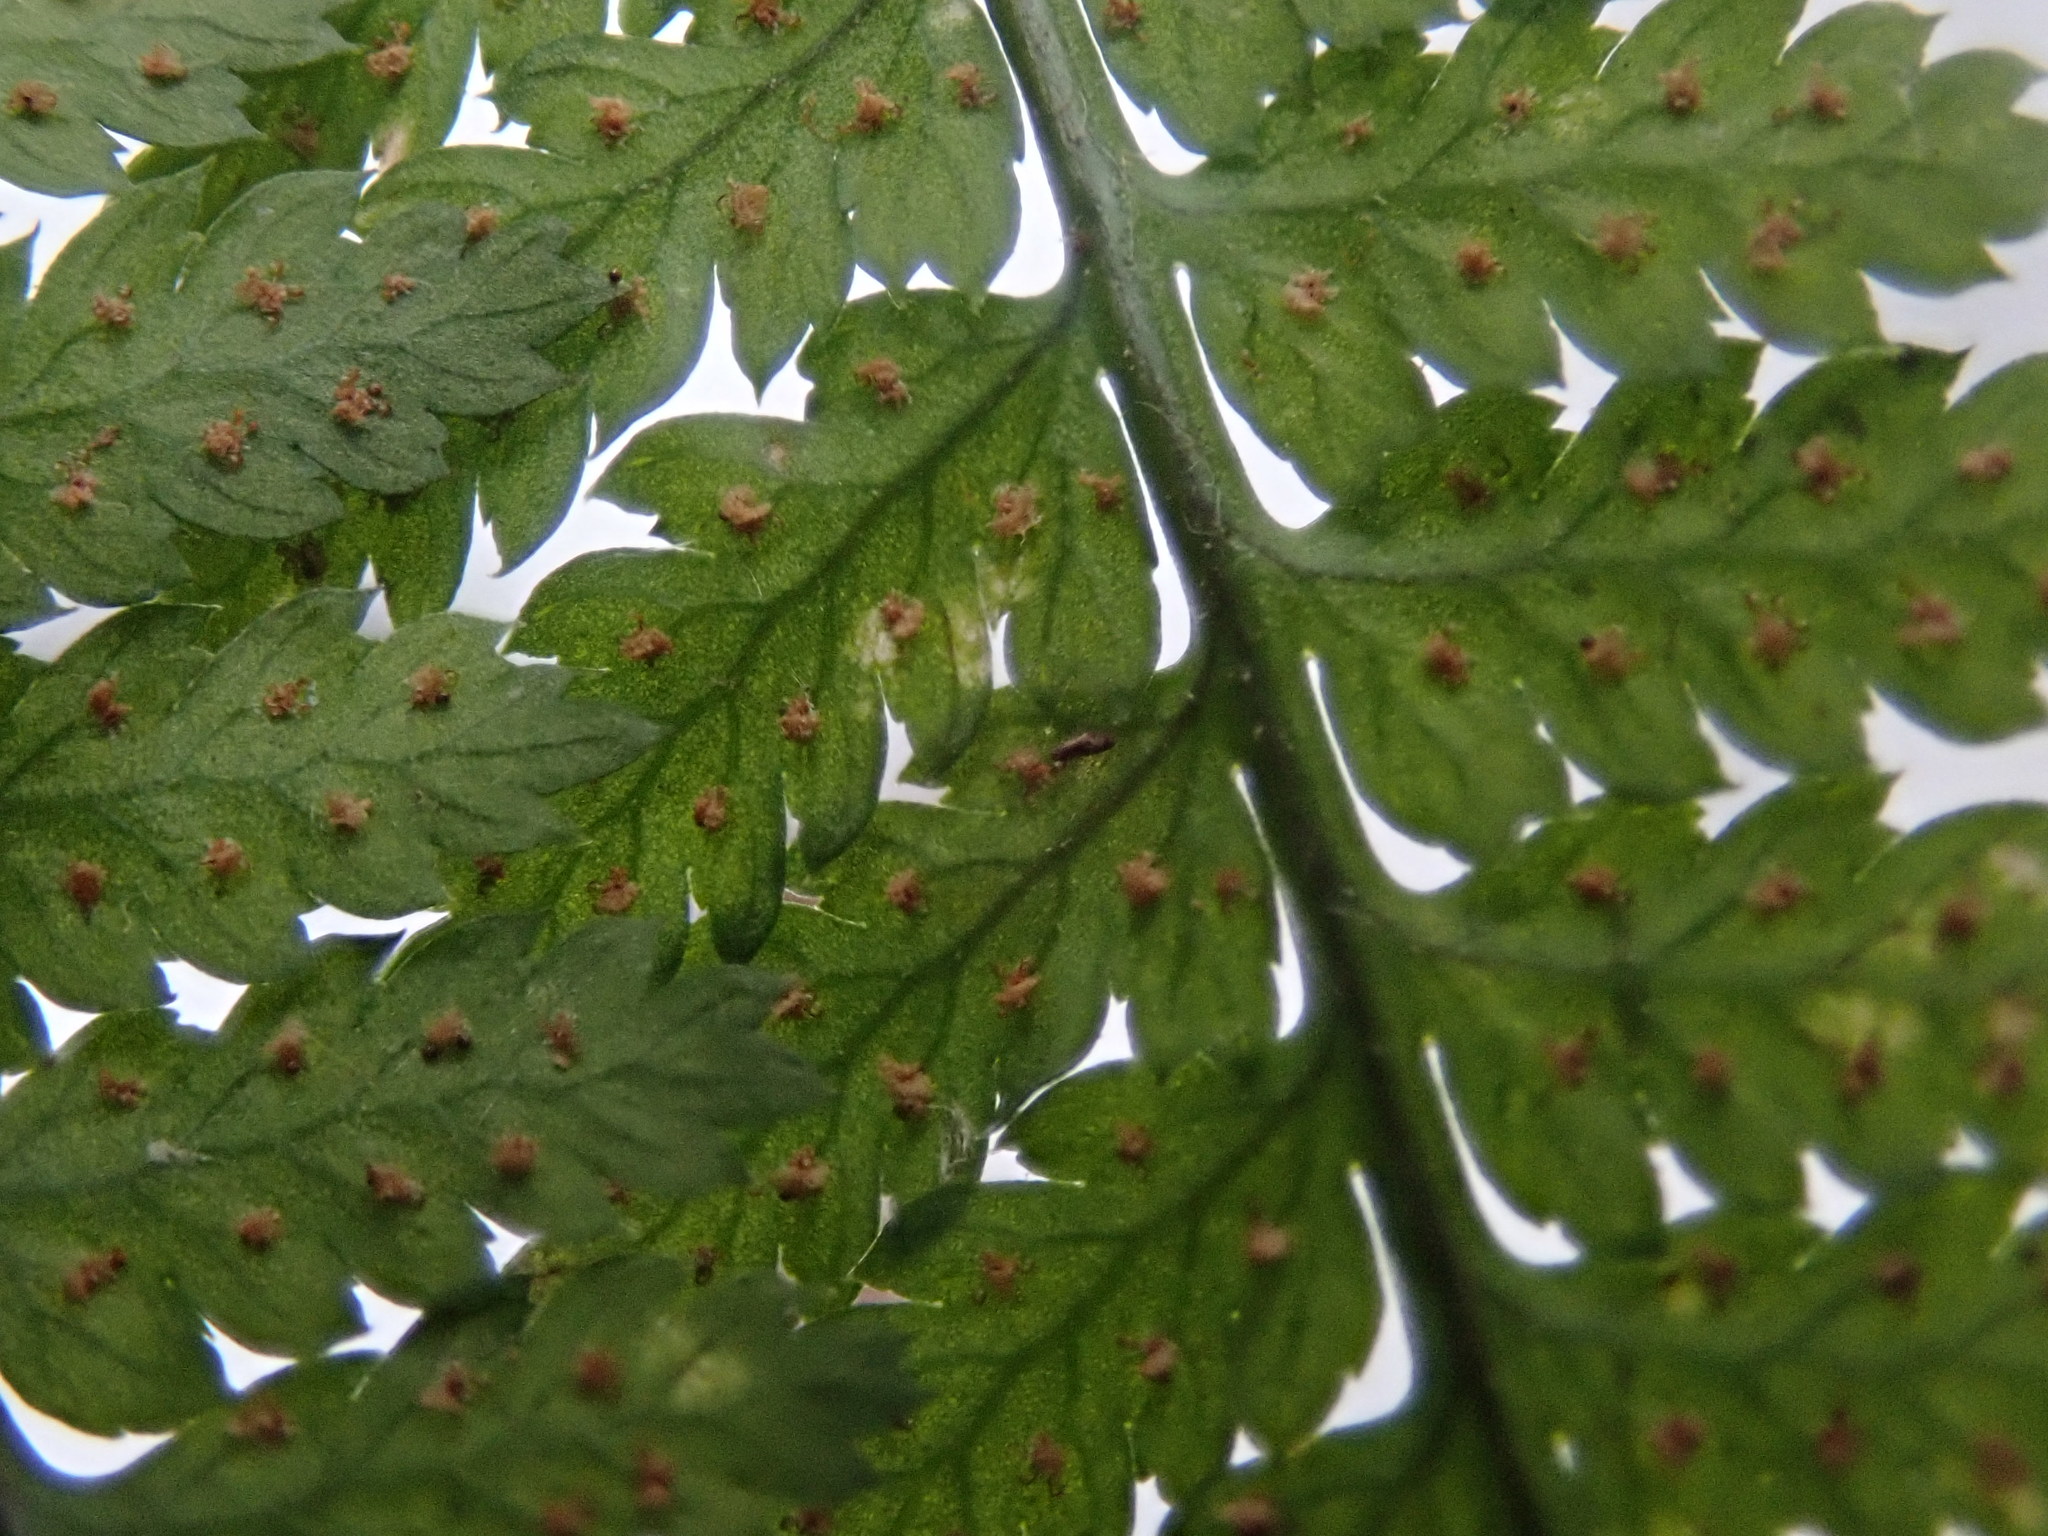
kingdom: Plantae
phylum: Tracheophyta
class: Polypodiopsida
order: Polypodiales
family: Dryopteridaceae
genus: Dryopteris
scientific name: Dryopteris intermedia
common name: Evergreen wood fern
